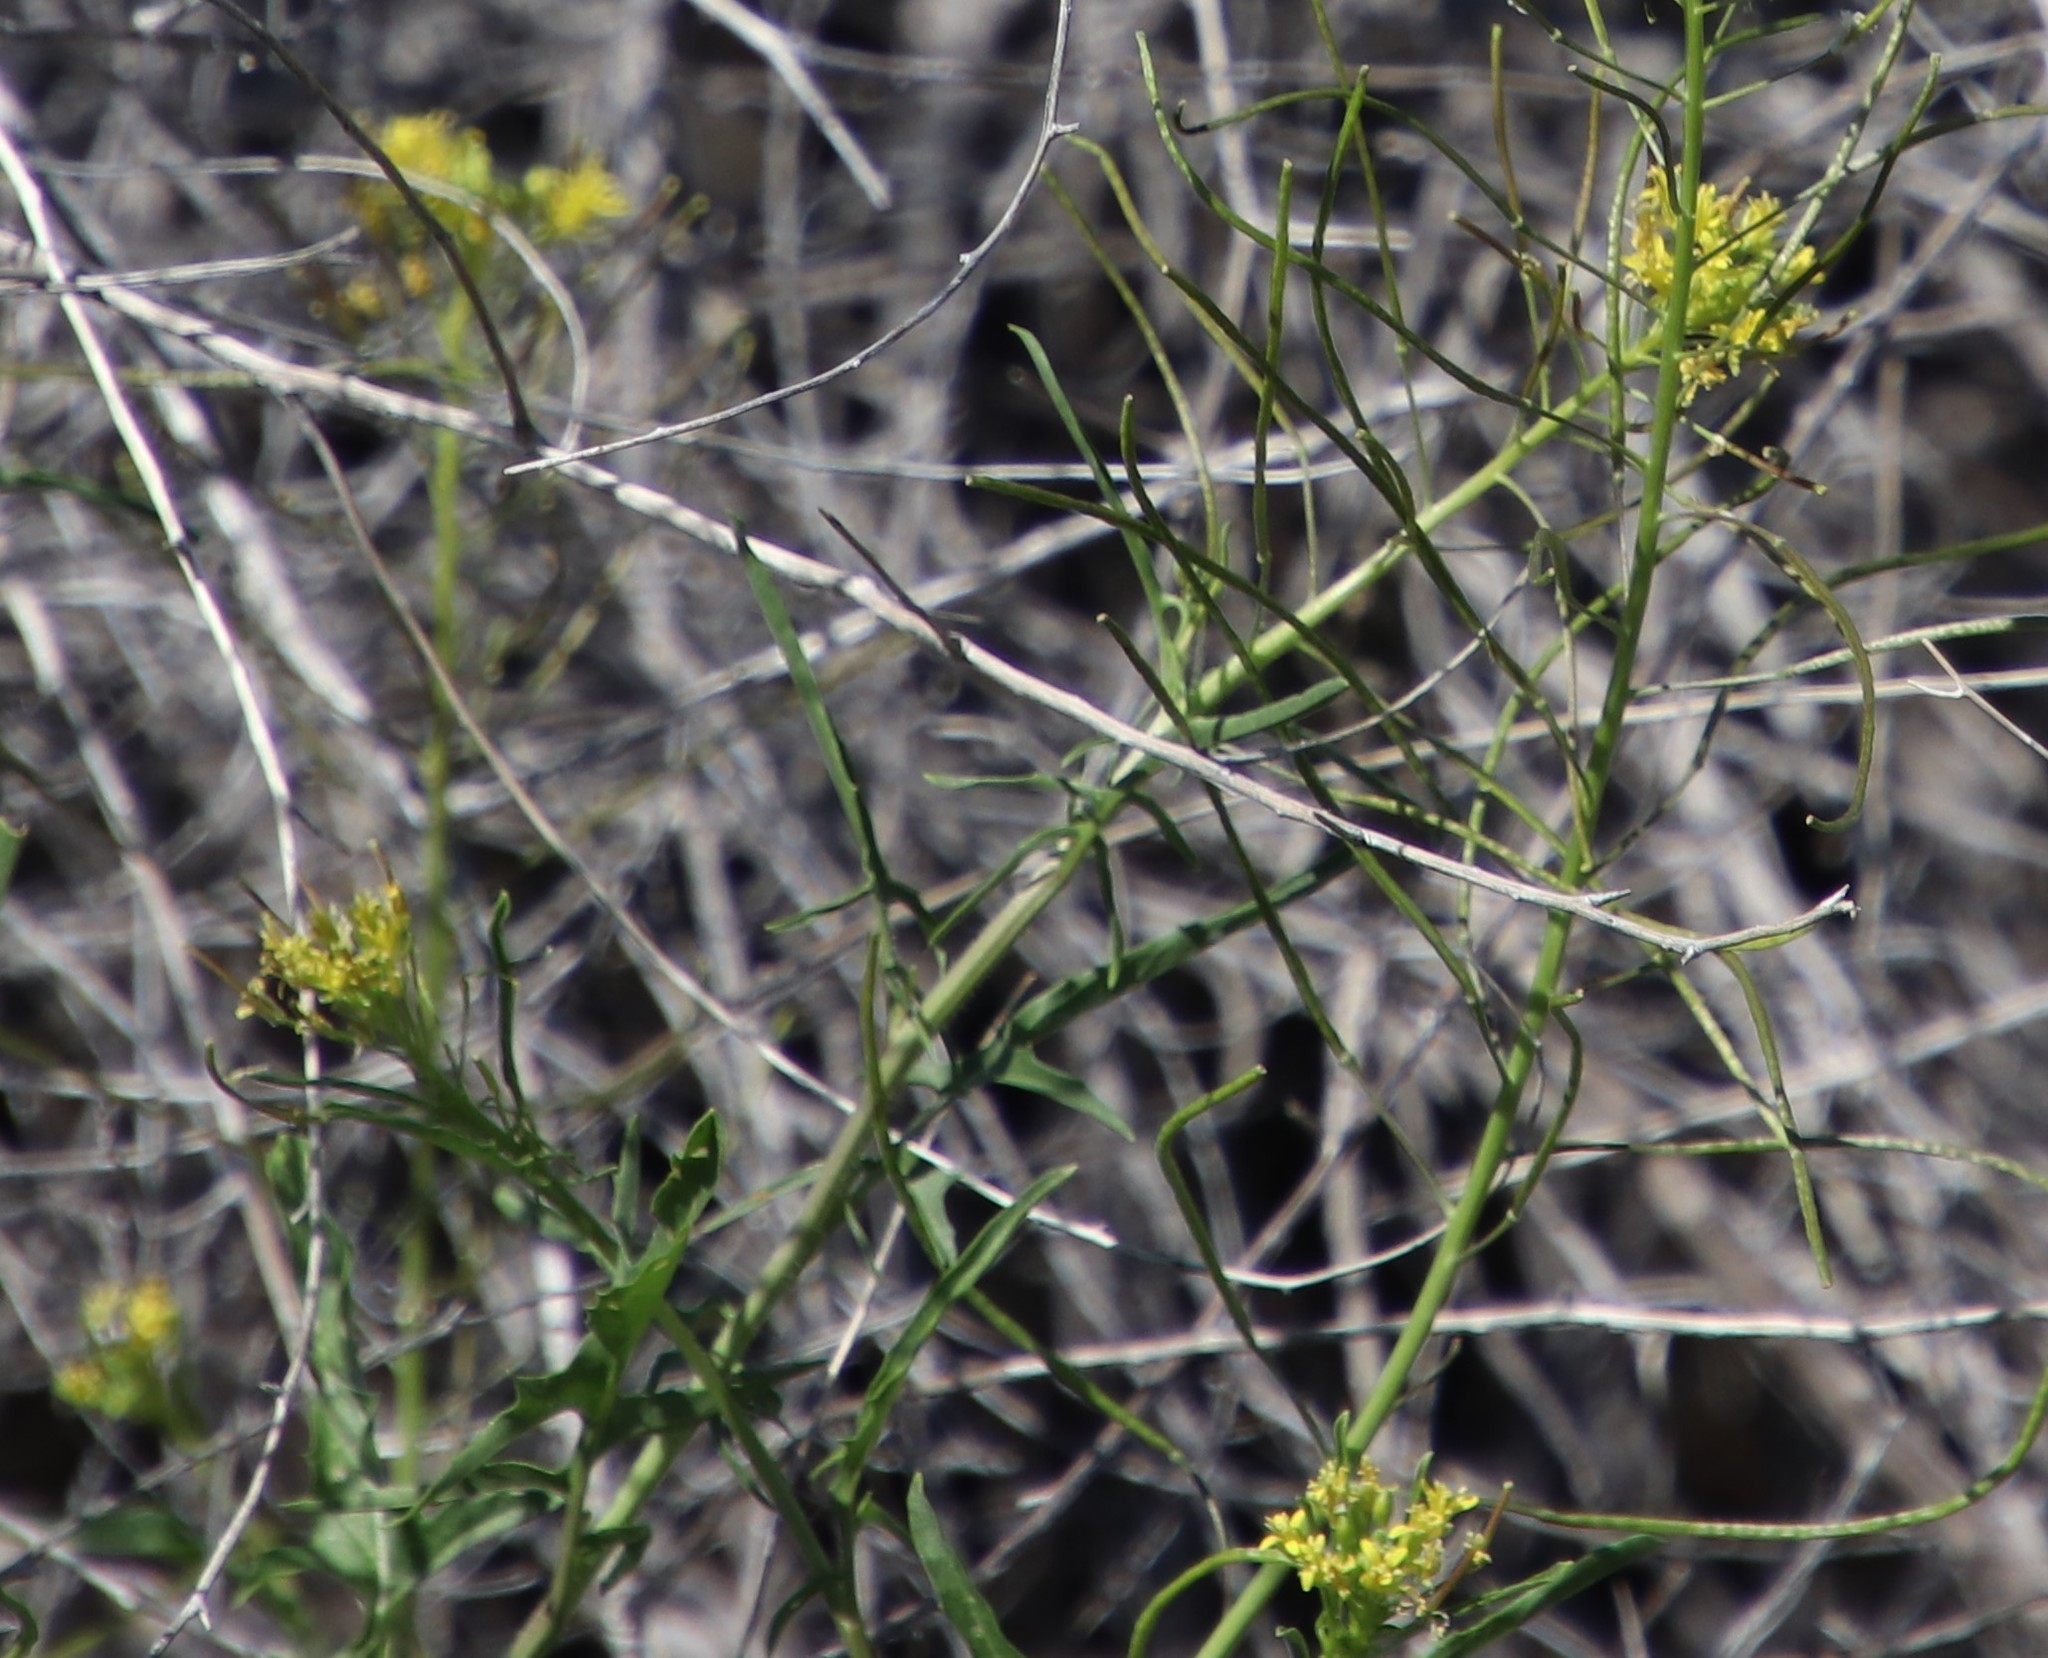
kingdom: Plantae
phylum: Tracheophyta
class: Magnoliopsida
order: Brassicales
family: Brassicaceae
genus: Sisymbrium
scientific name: Sisymbrium irio
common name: London rocket
